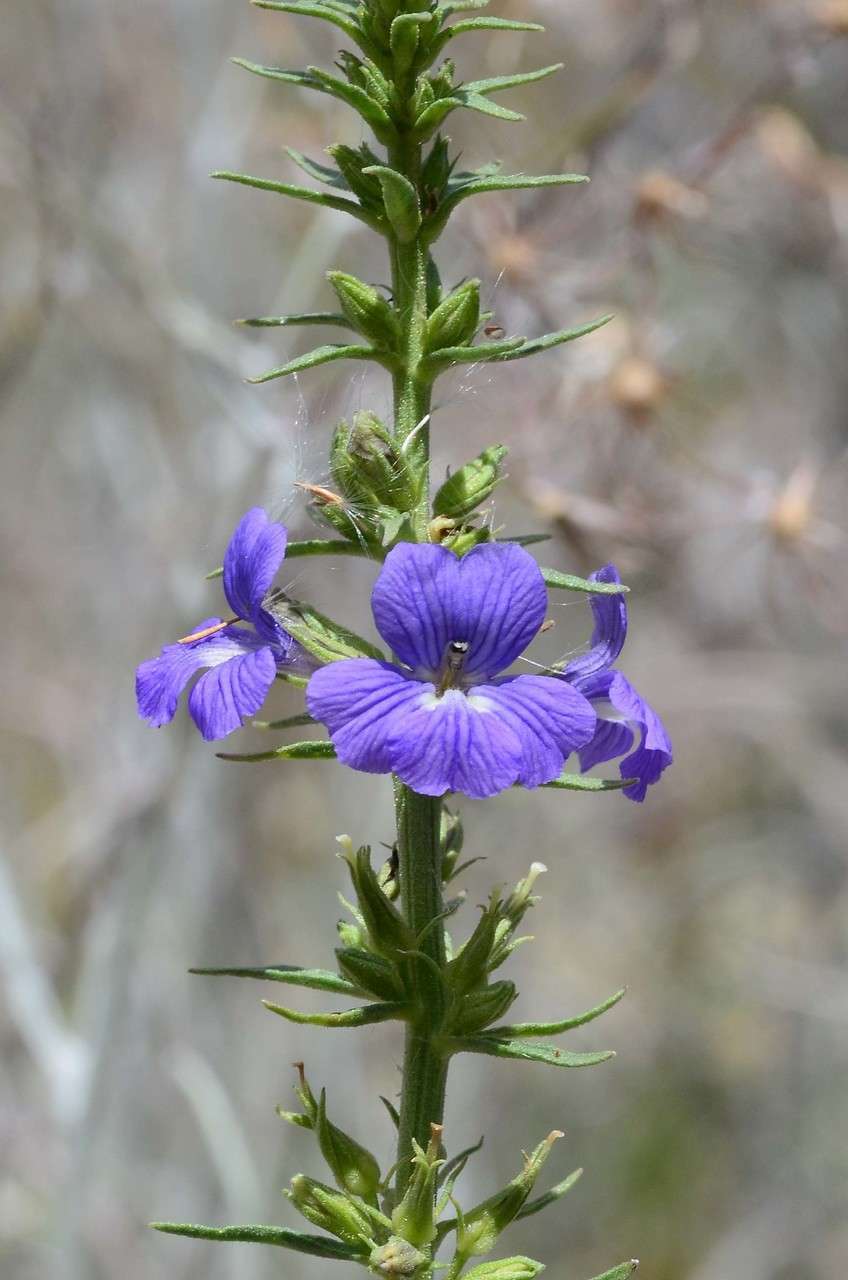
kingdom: Plantae
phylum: Tracheophyta
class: Magnoliopsida
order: Lamiales
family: Plantaginaceae
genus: Stemodia
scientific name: Stemodia florulenta
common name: Bluerod
